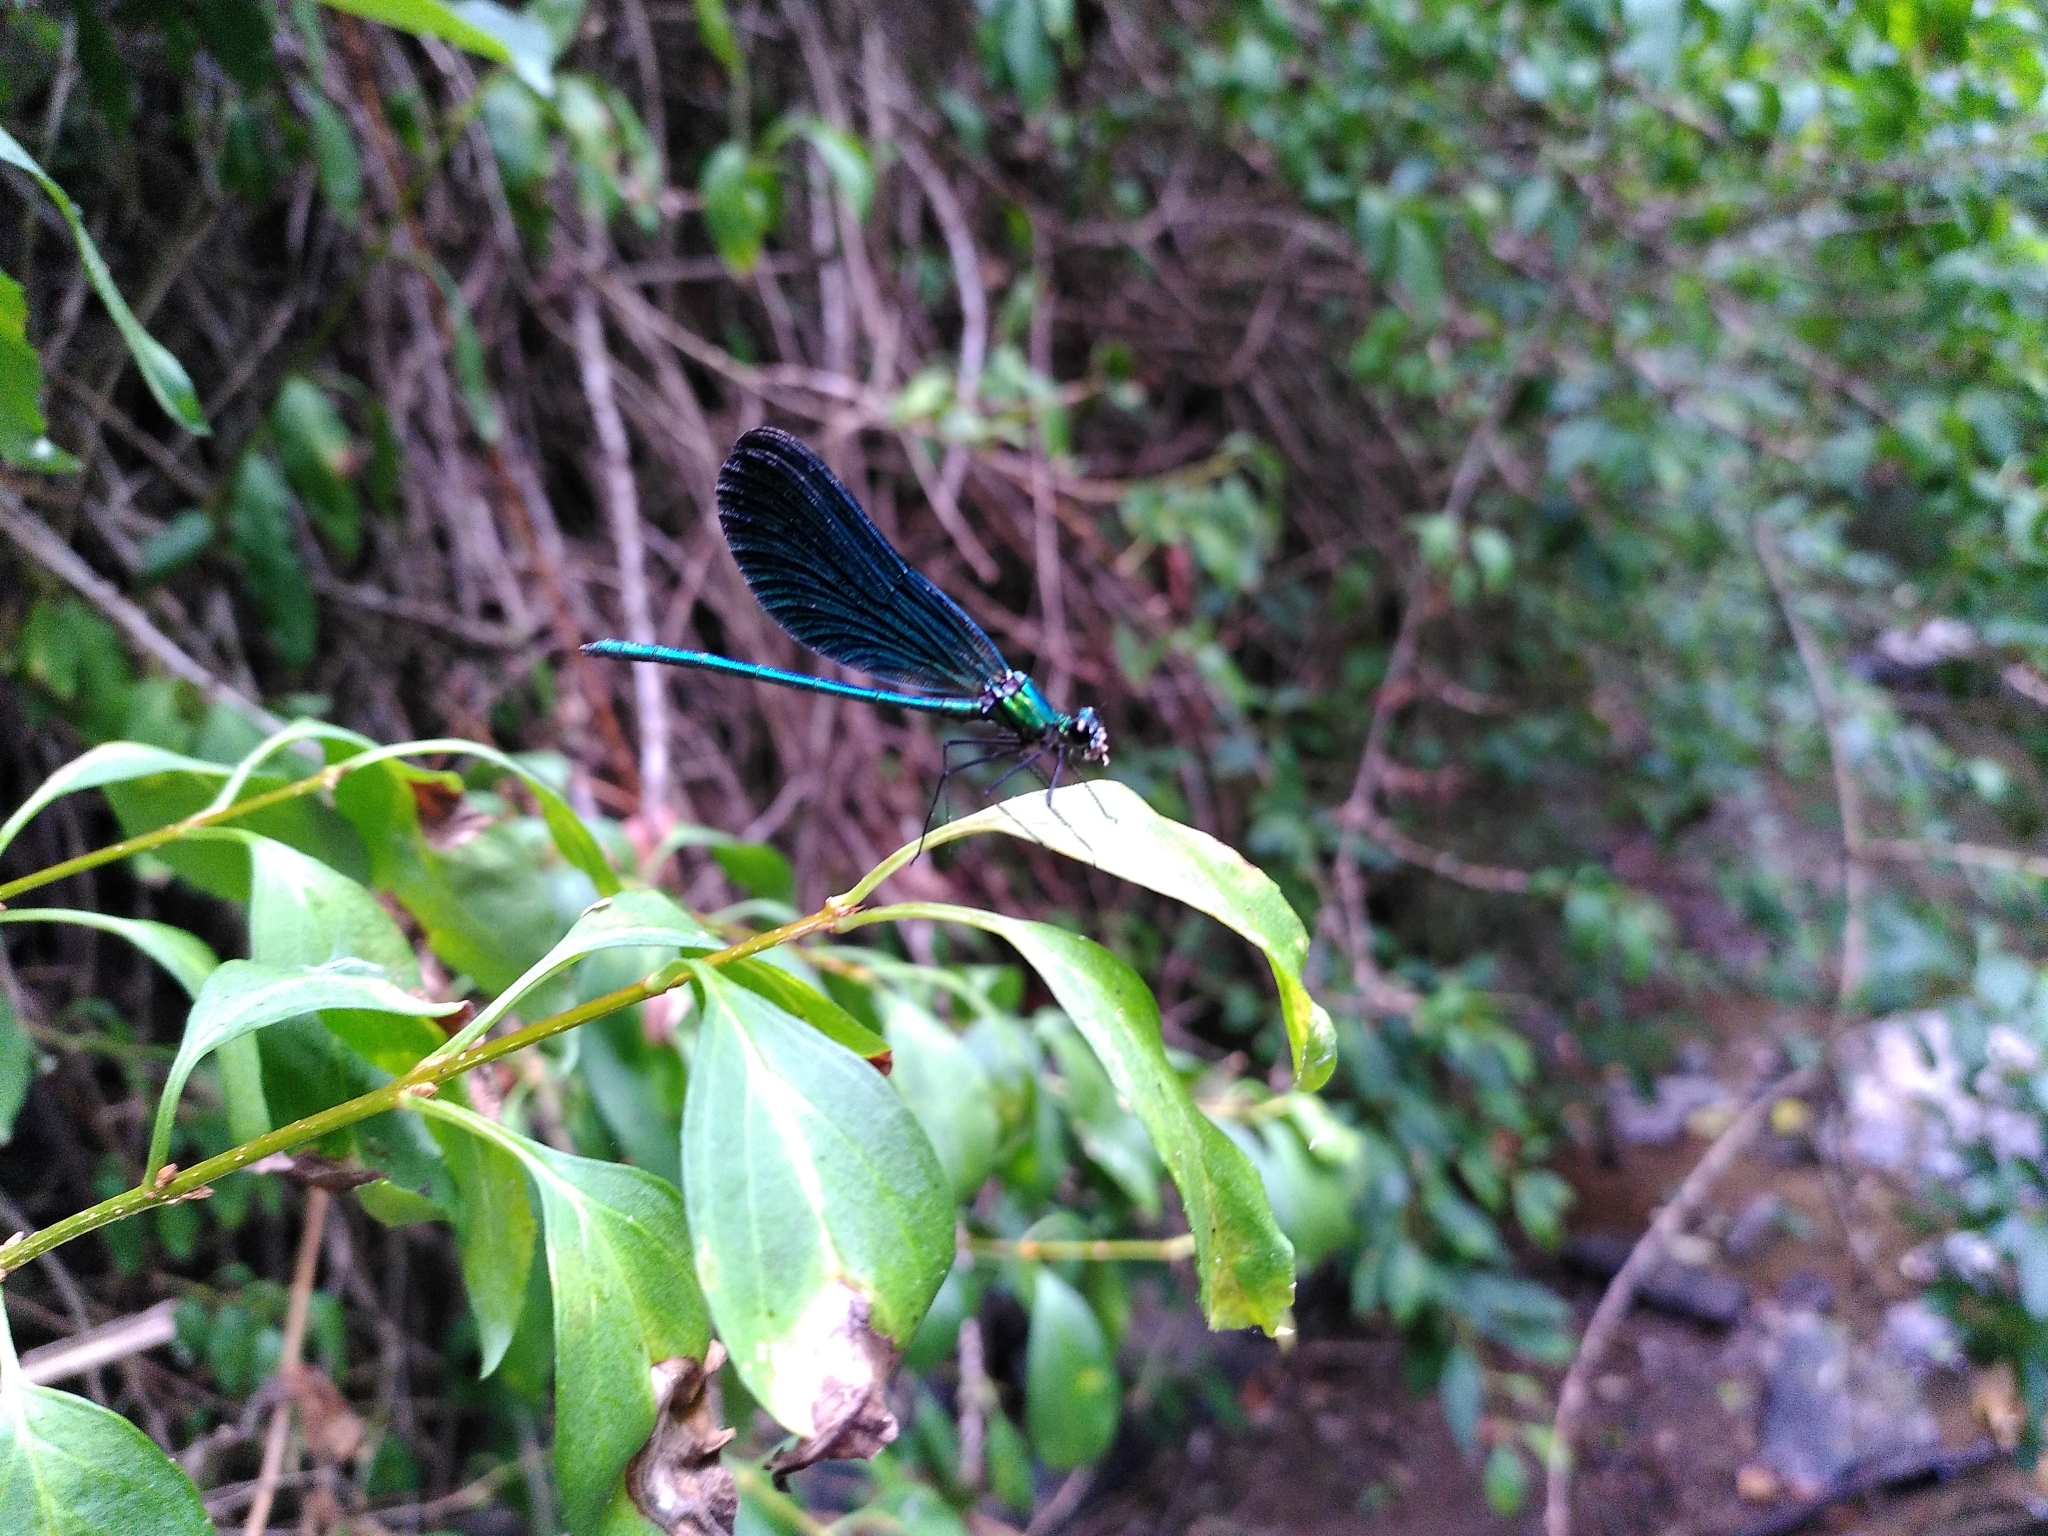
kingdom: Animalia
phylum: Arthropoda
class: Insecta
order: Odonata
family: Calopterygidae
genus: Calopteryx
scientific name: Calopteryx virgo
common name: Beautiful demoiselle
